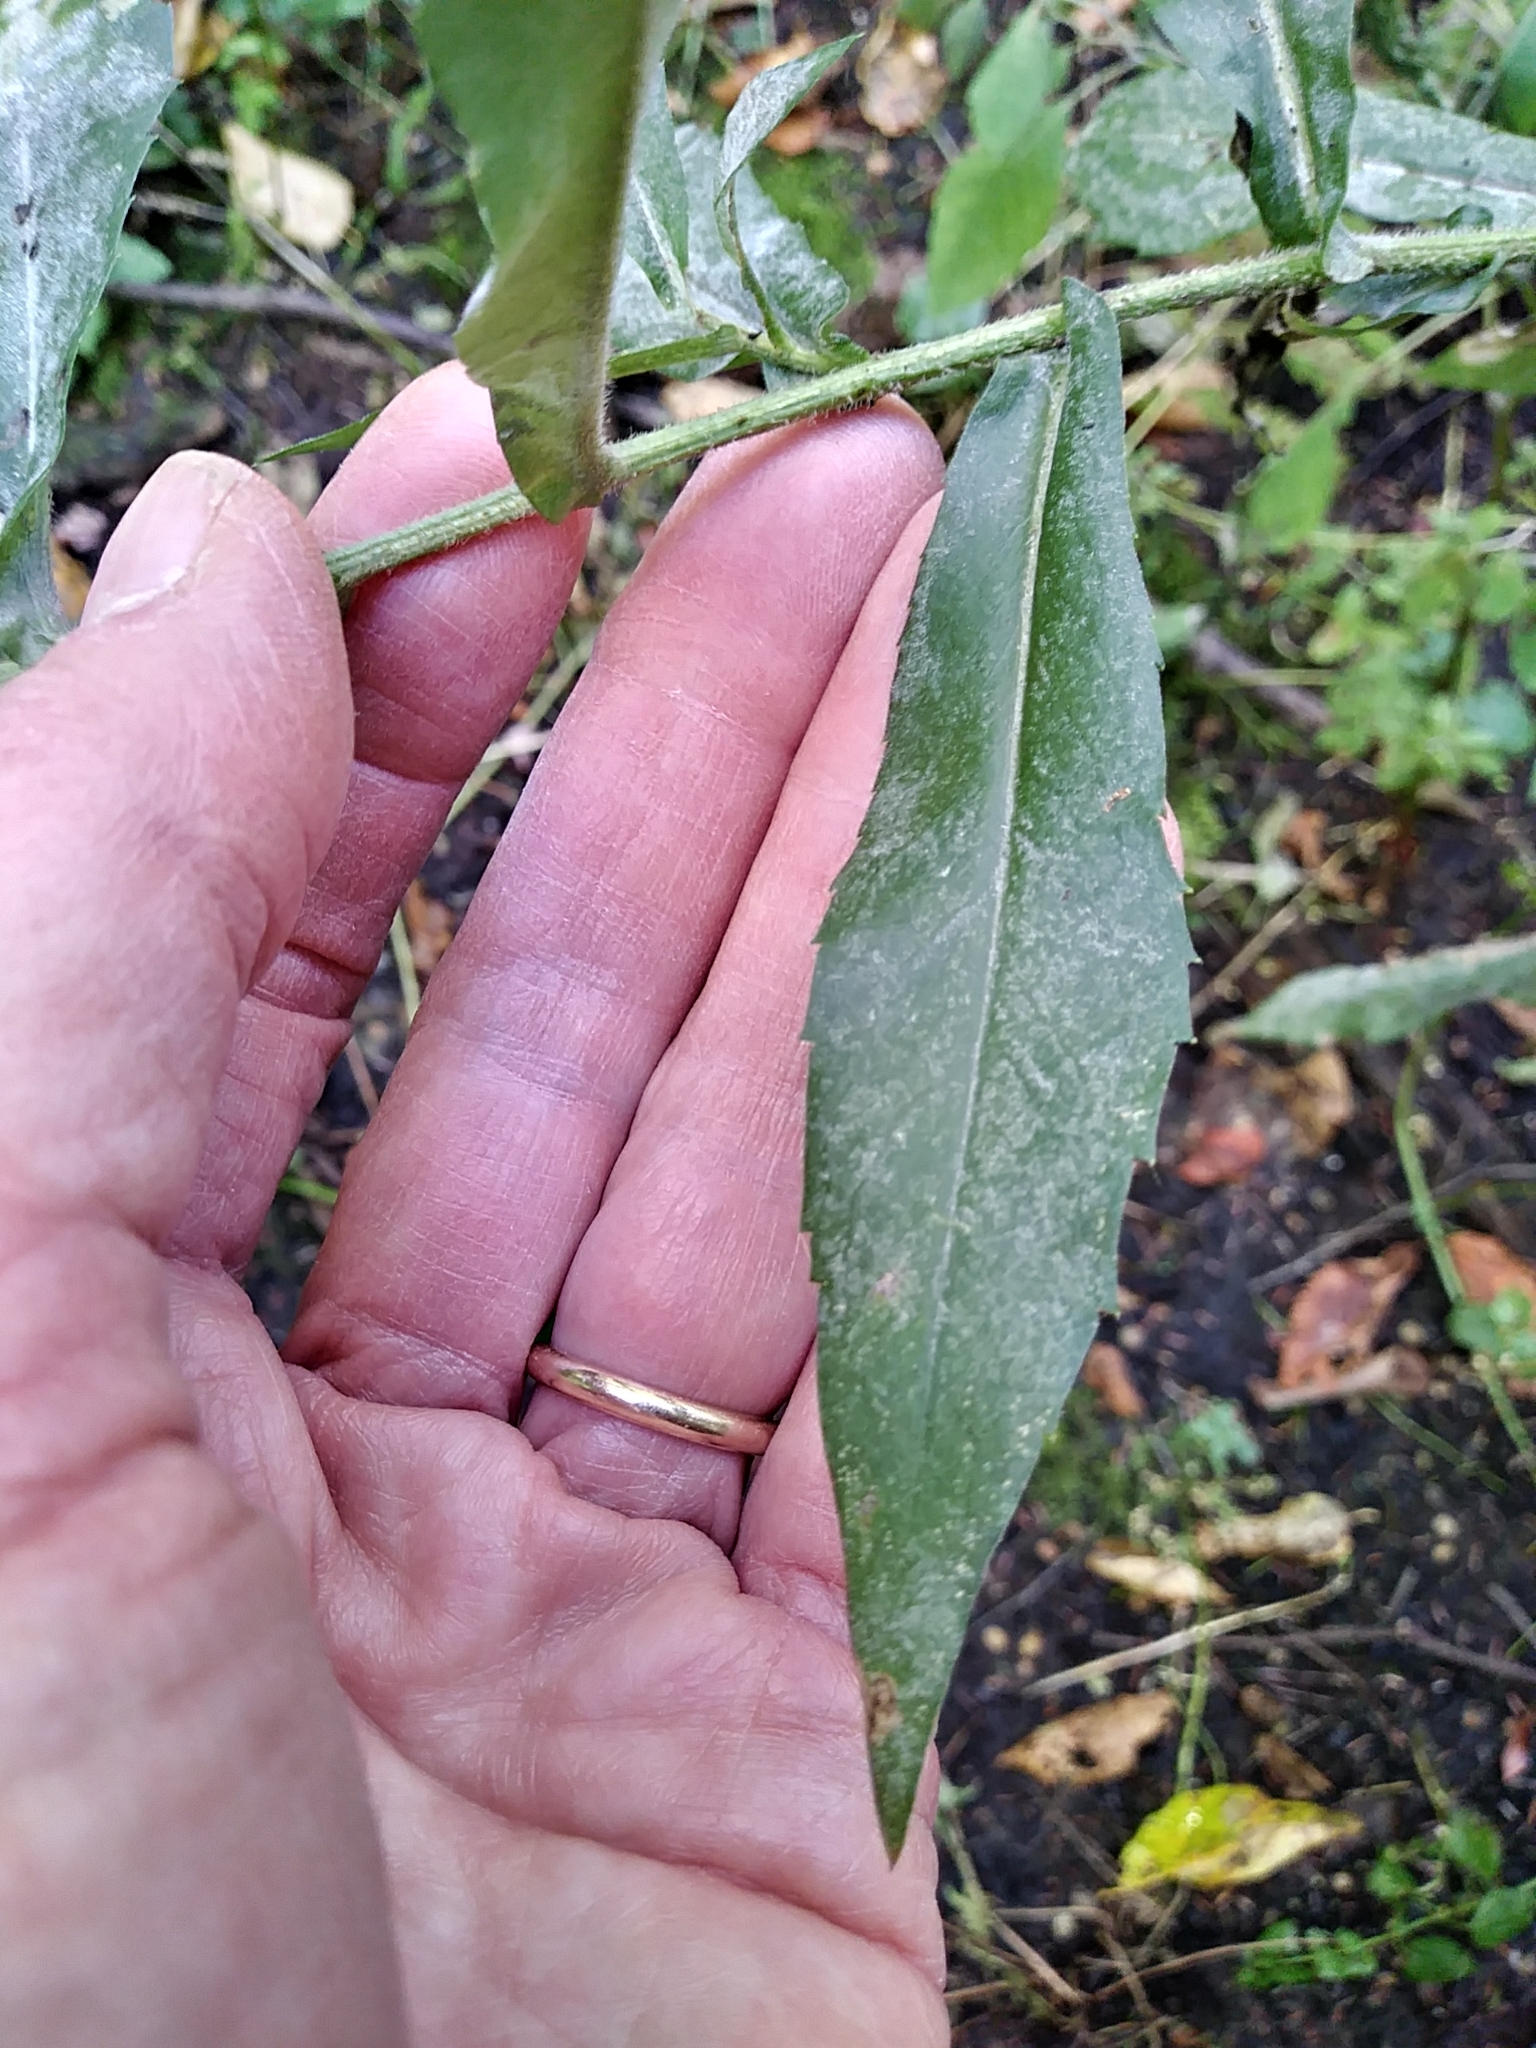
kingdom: Plantae
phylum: Tracheophyta
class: Magnoliopsida
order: Asterales
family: Asteraceae
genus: Symphyotrichum
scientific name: Symphyotrichum puniceum
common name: Bog aster
